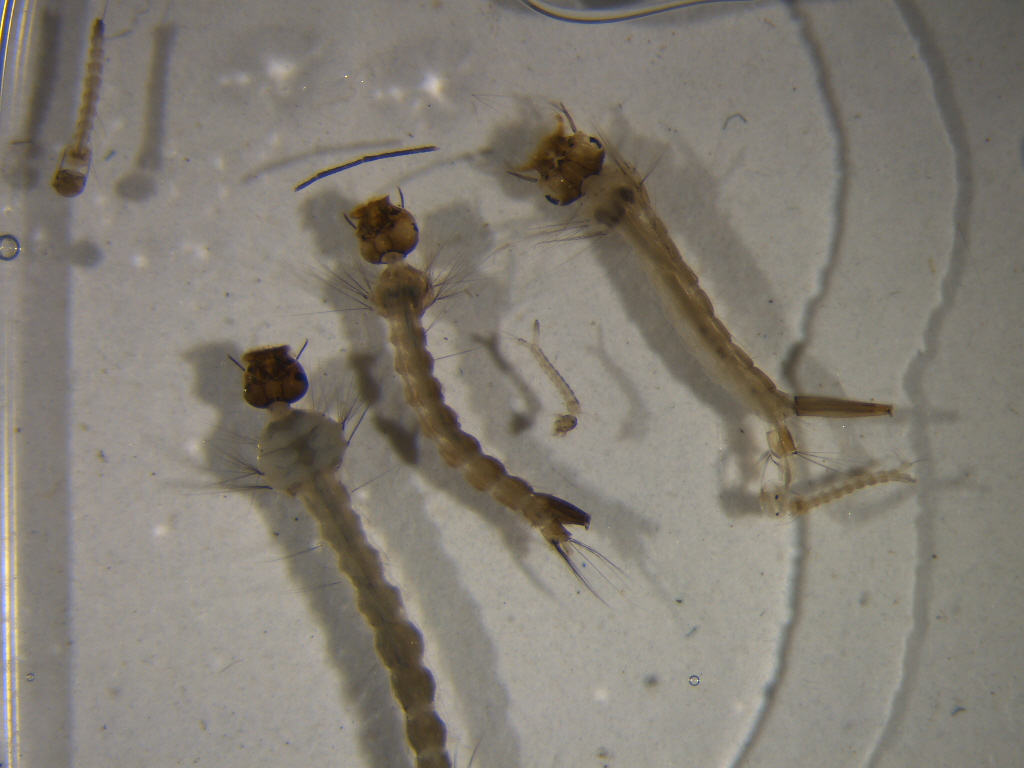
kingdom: Animalia
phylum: Arthropoda
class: Insecta
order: Diptera
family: Culicidae
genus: Culex
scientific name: Culex pervigilans
